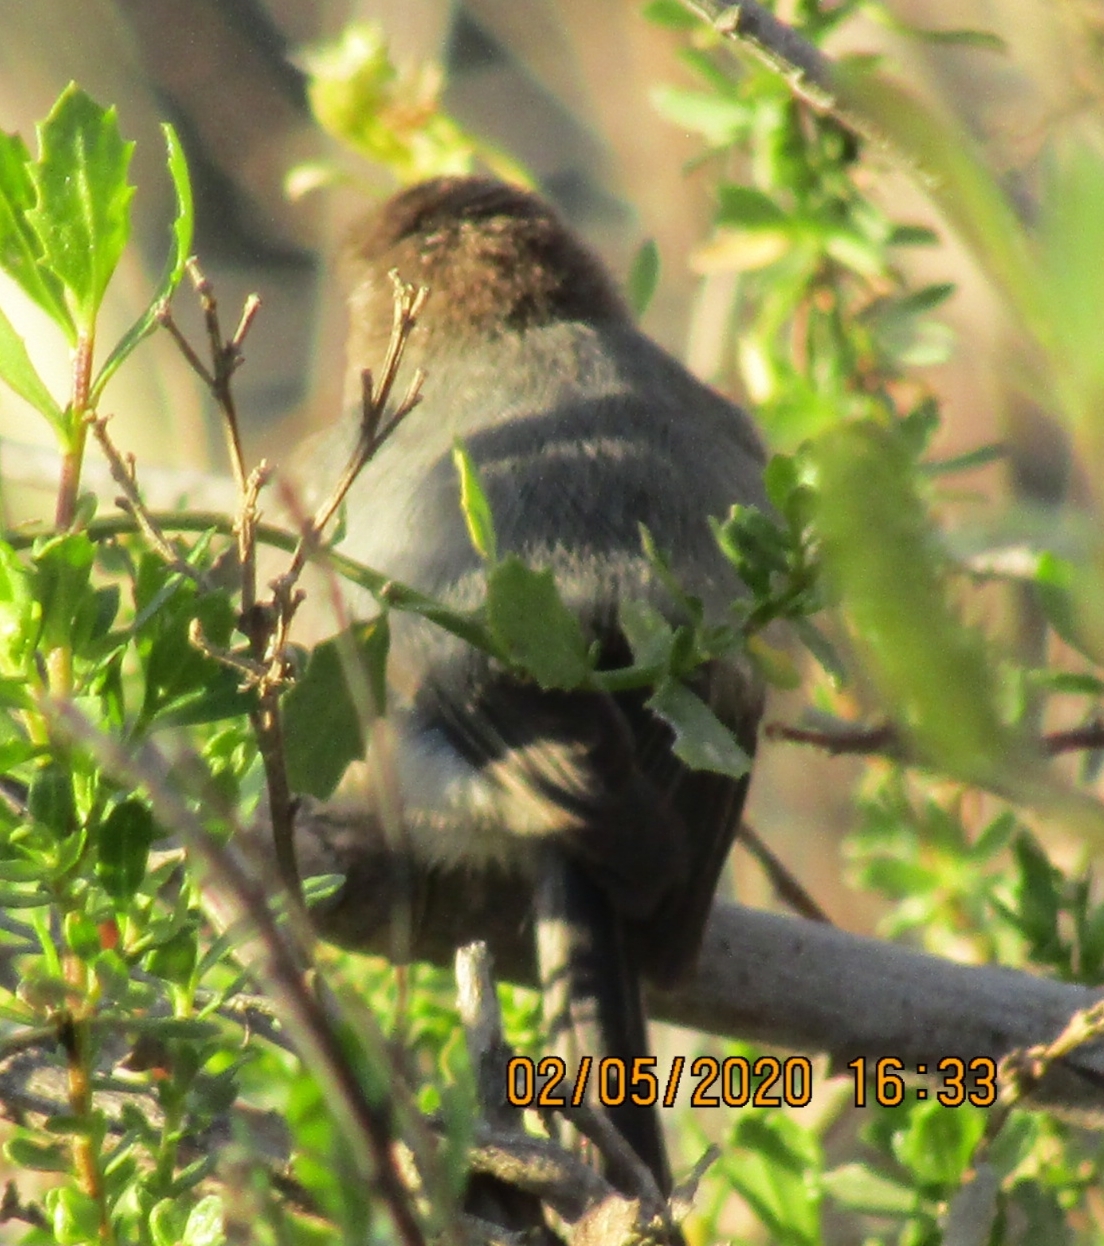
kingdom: Animalia
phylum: Chordata
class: Aves
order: Passeriformes
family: Aegithalidae
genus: Psaltriparus
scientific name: Psaltriparus minimus
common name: American bushtit
